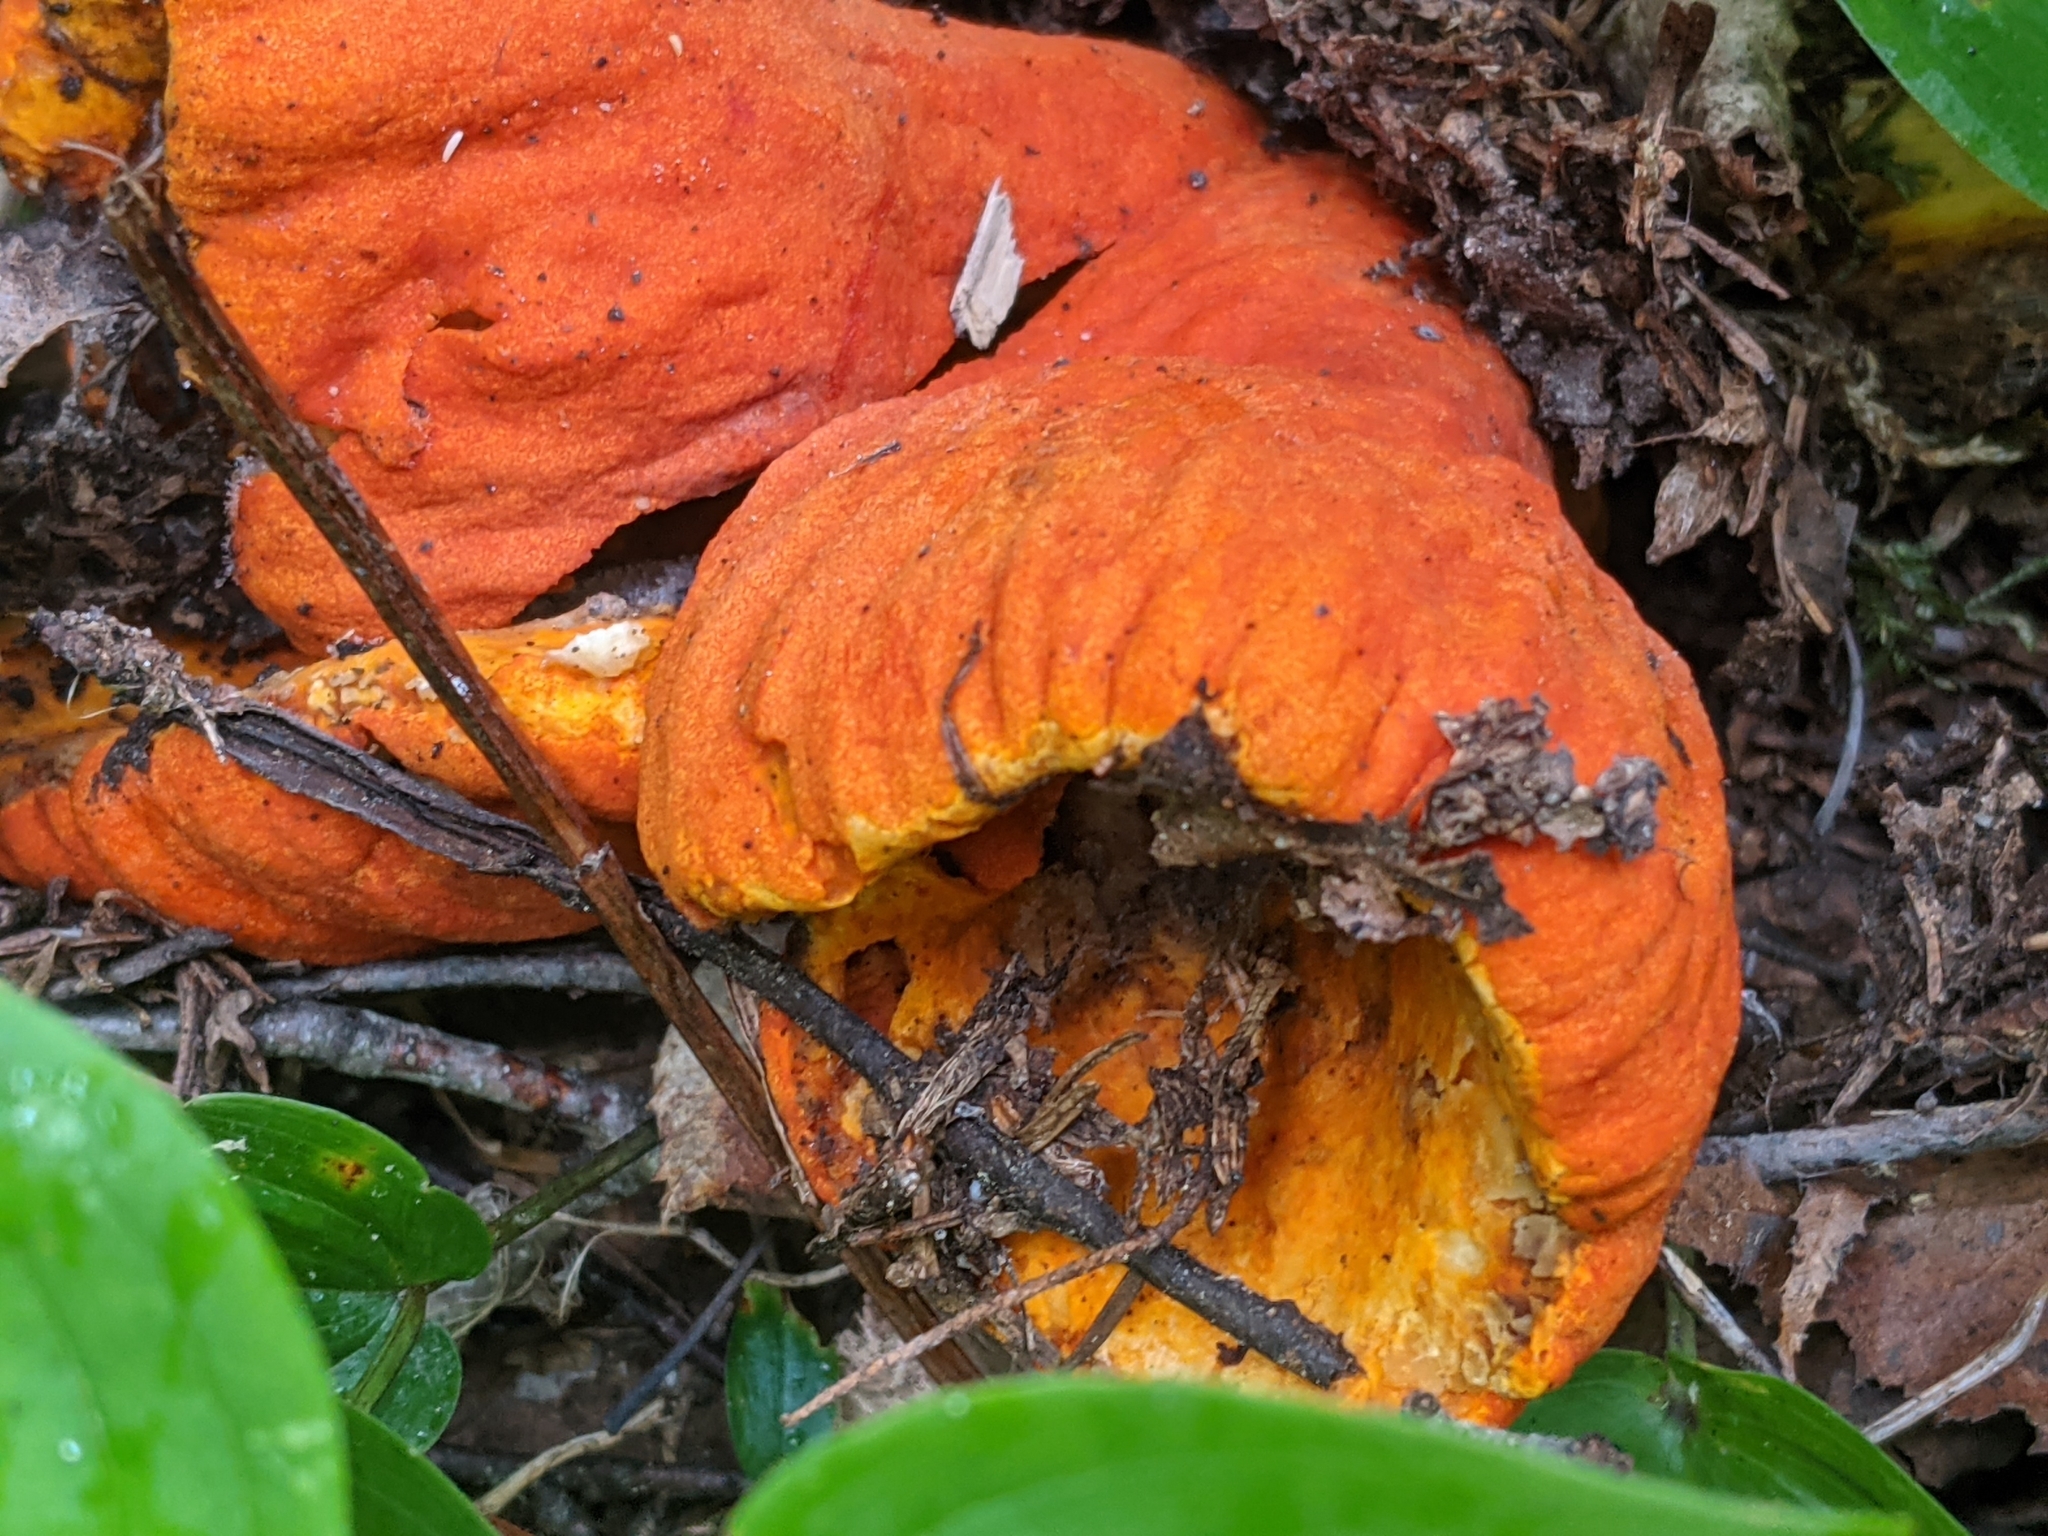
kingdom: Fungi
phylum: Ascomycota
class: Sordariomycetes
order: Hypocreales
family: Hypocreaceae
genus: Hypomyces
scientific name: Hypomyces lactifluorum
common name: Lobster mushroom
